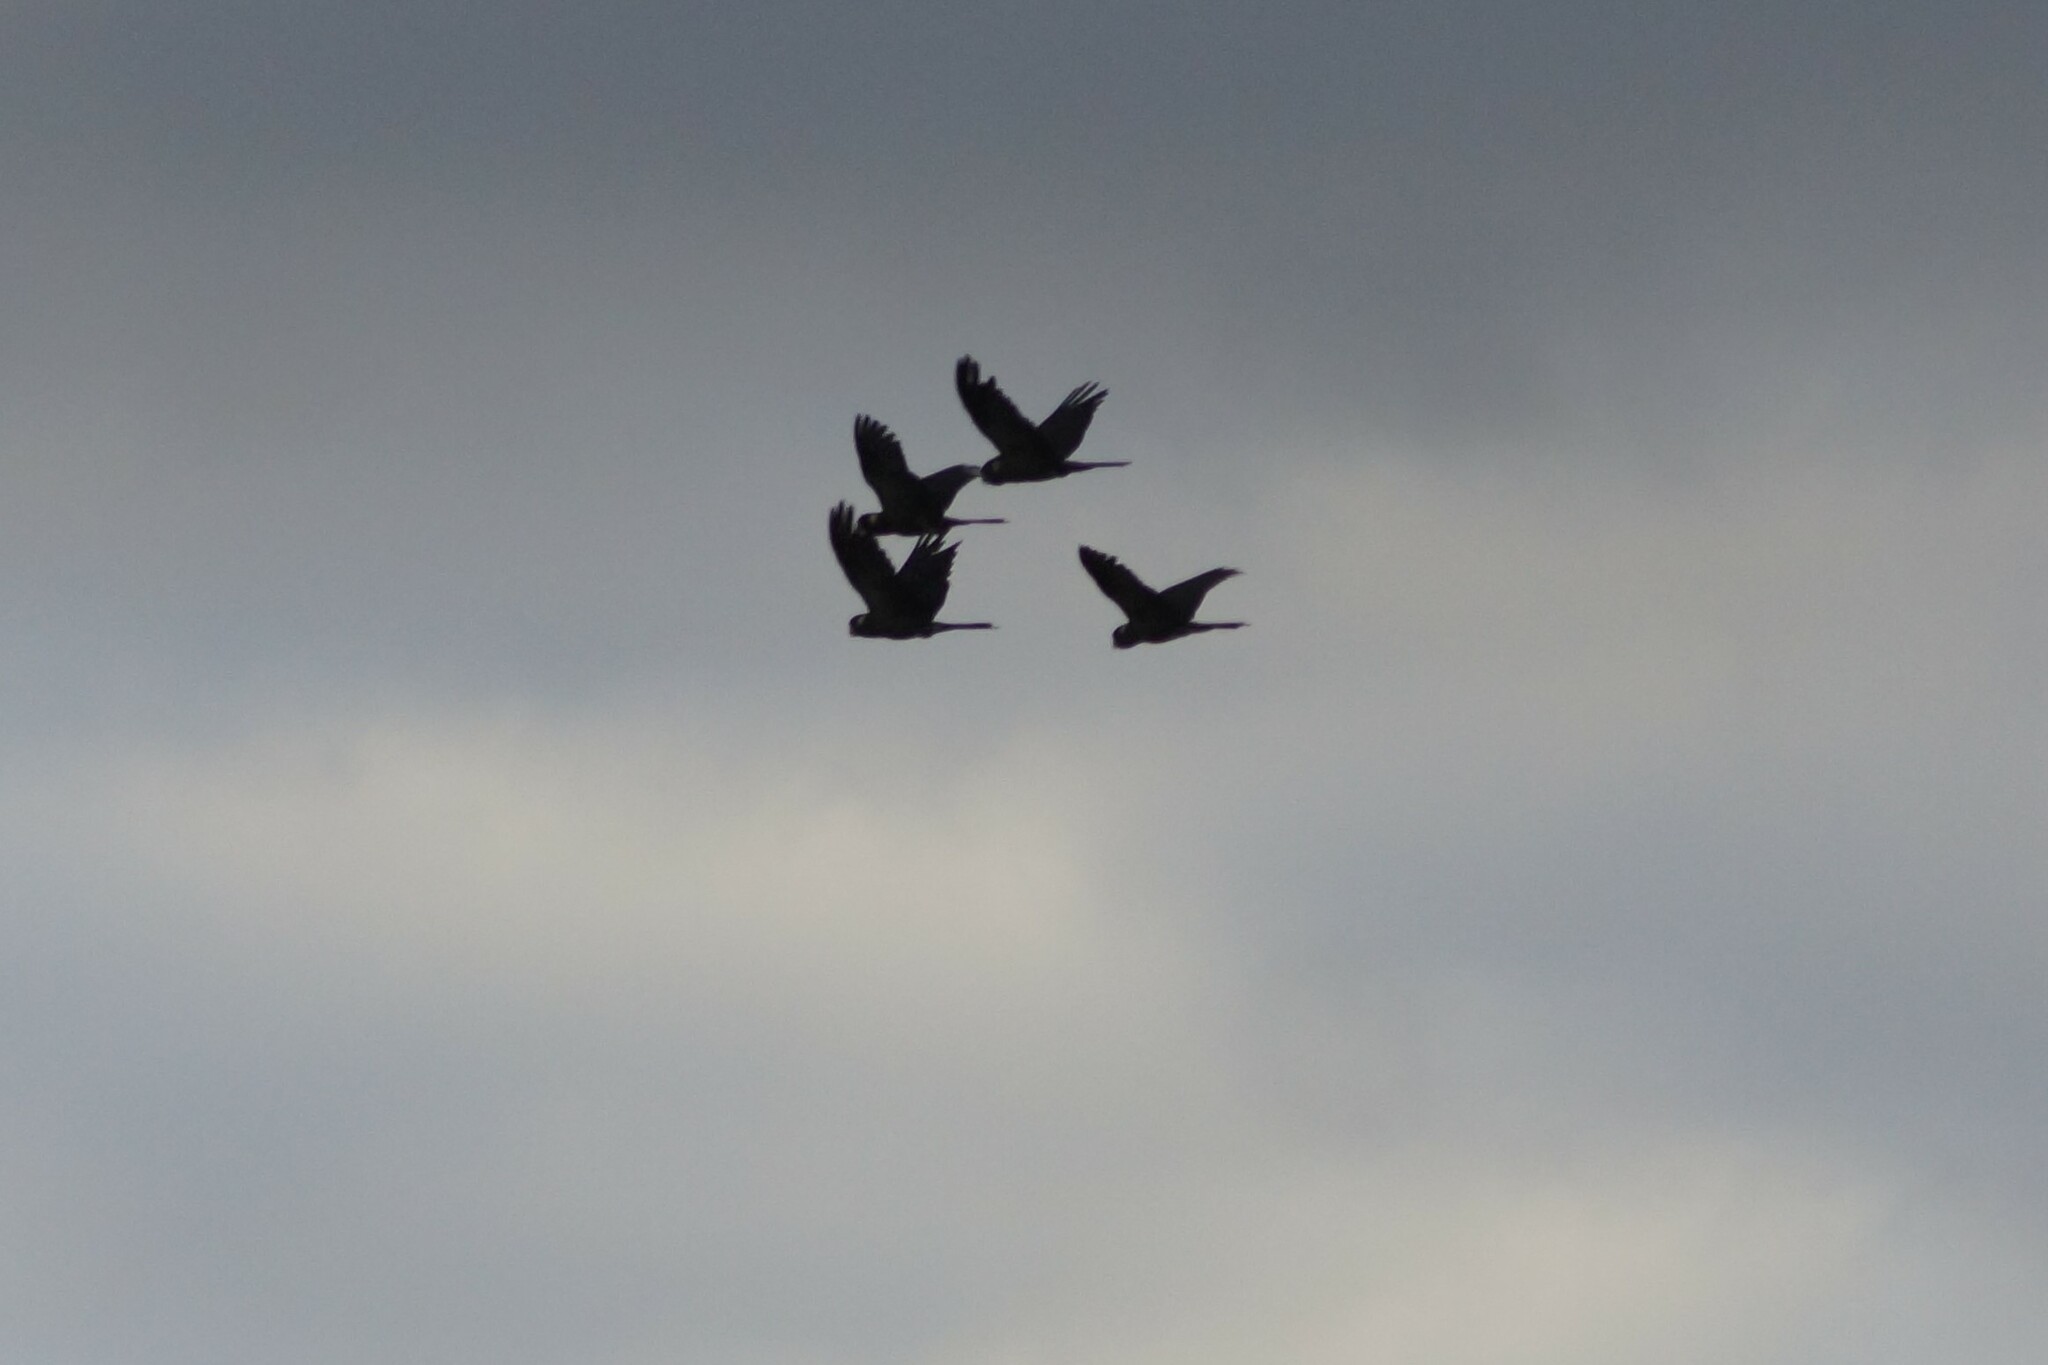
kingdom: Animalia
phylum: Chordata
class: Aves
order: Psittaciformes
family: Cacatuidae
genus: Zanda
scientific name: Zanda funerea
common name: Yellow-tailed black-cockatoo
